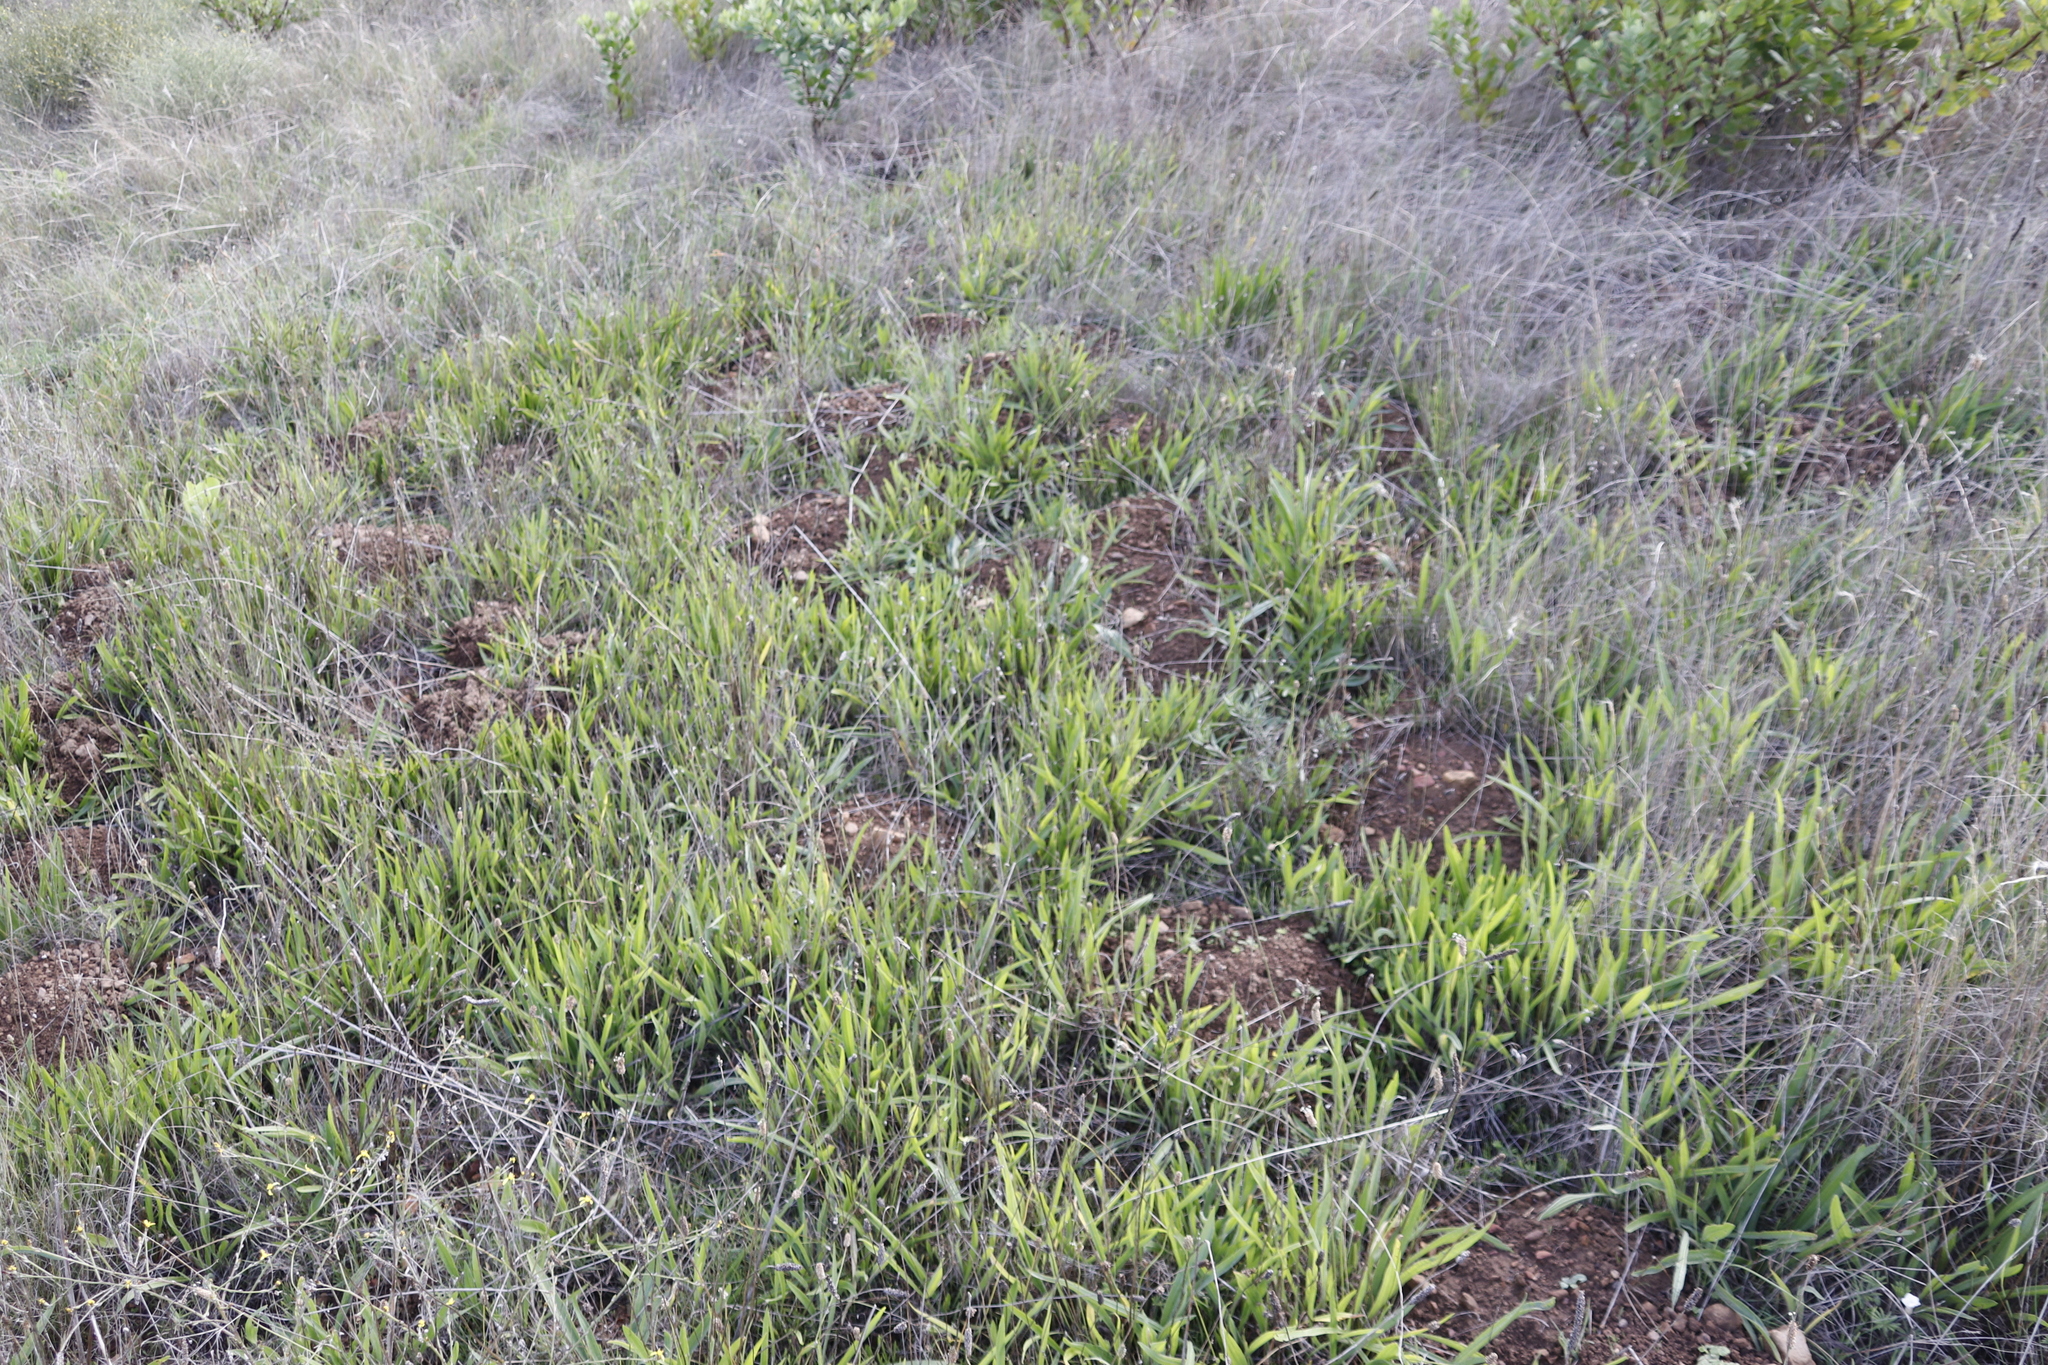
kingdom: Plantae
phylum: Tracheophyta
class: Magnoliopsida
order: Lamiales
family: Plantaginaceae
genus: Plantago
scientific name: Plantago lanceolata
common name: Ribwort plantain
